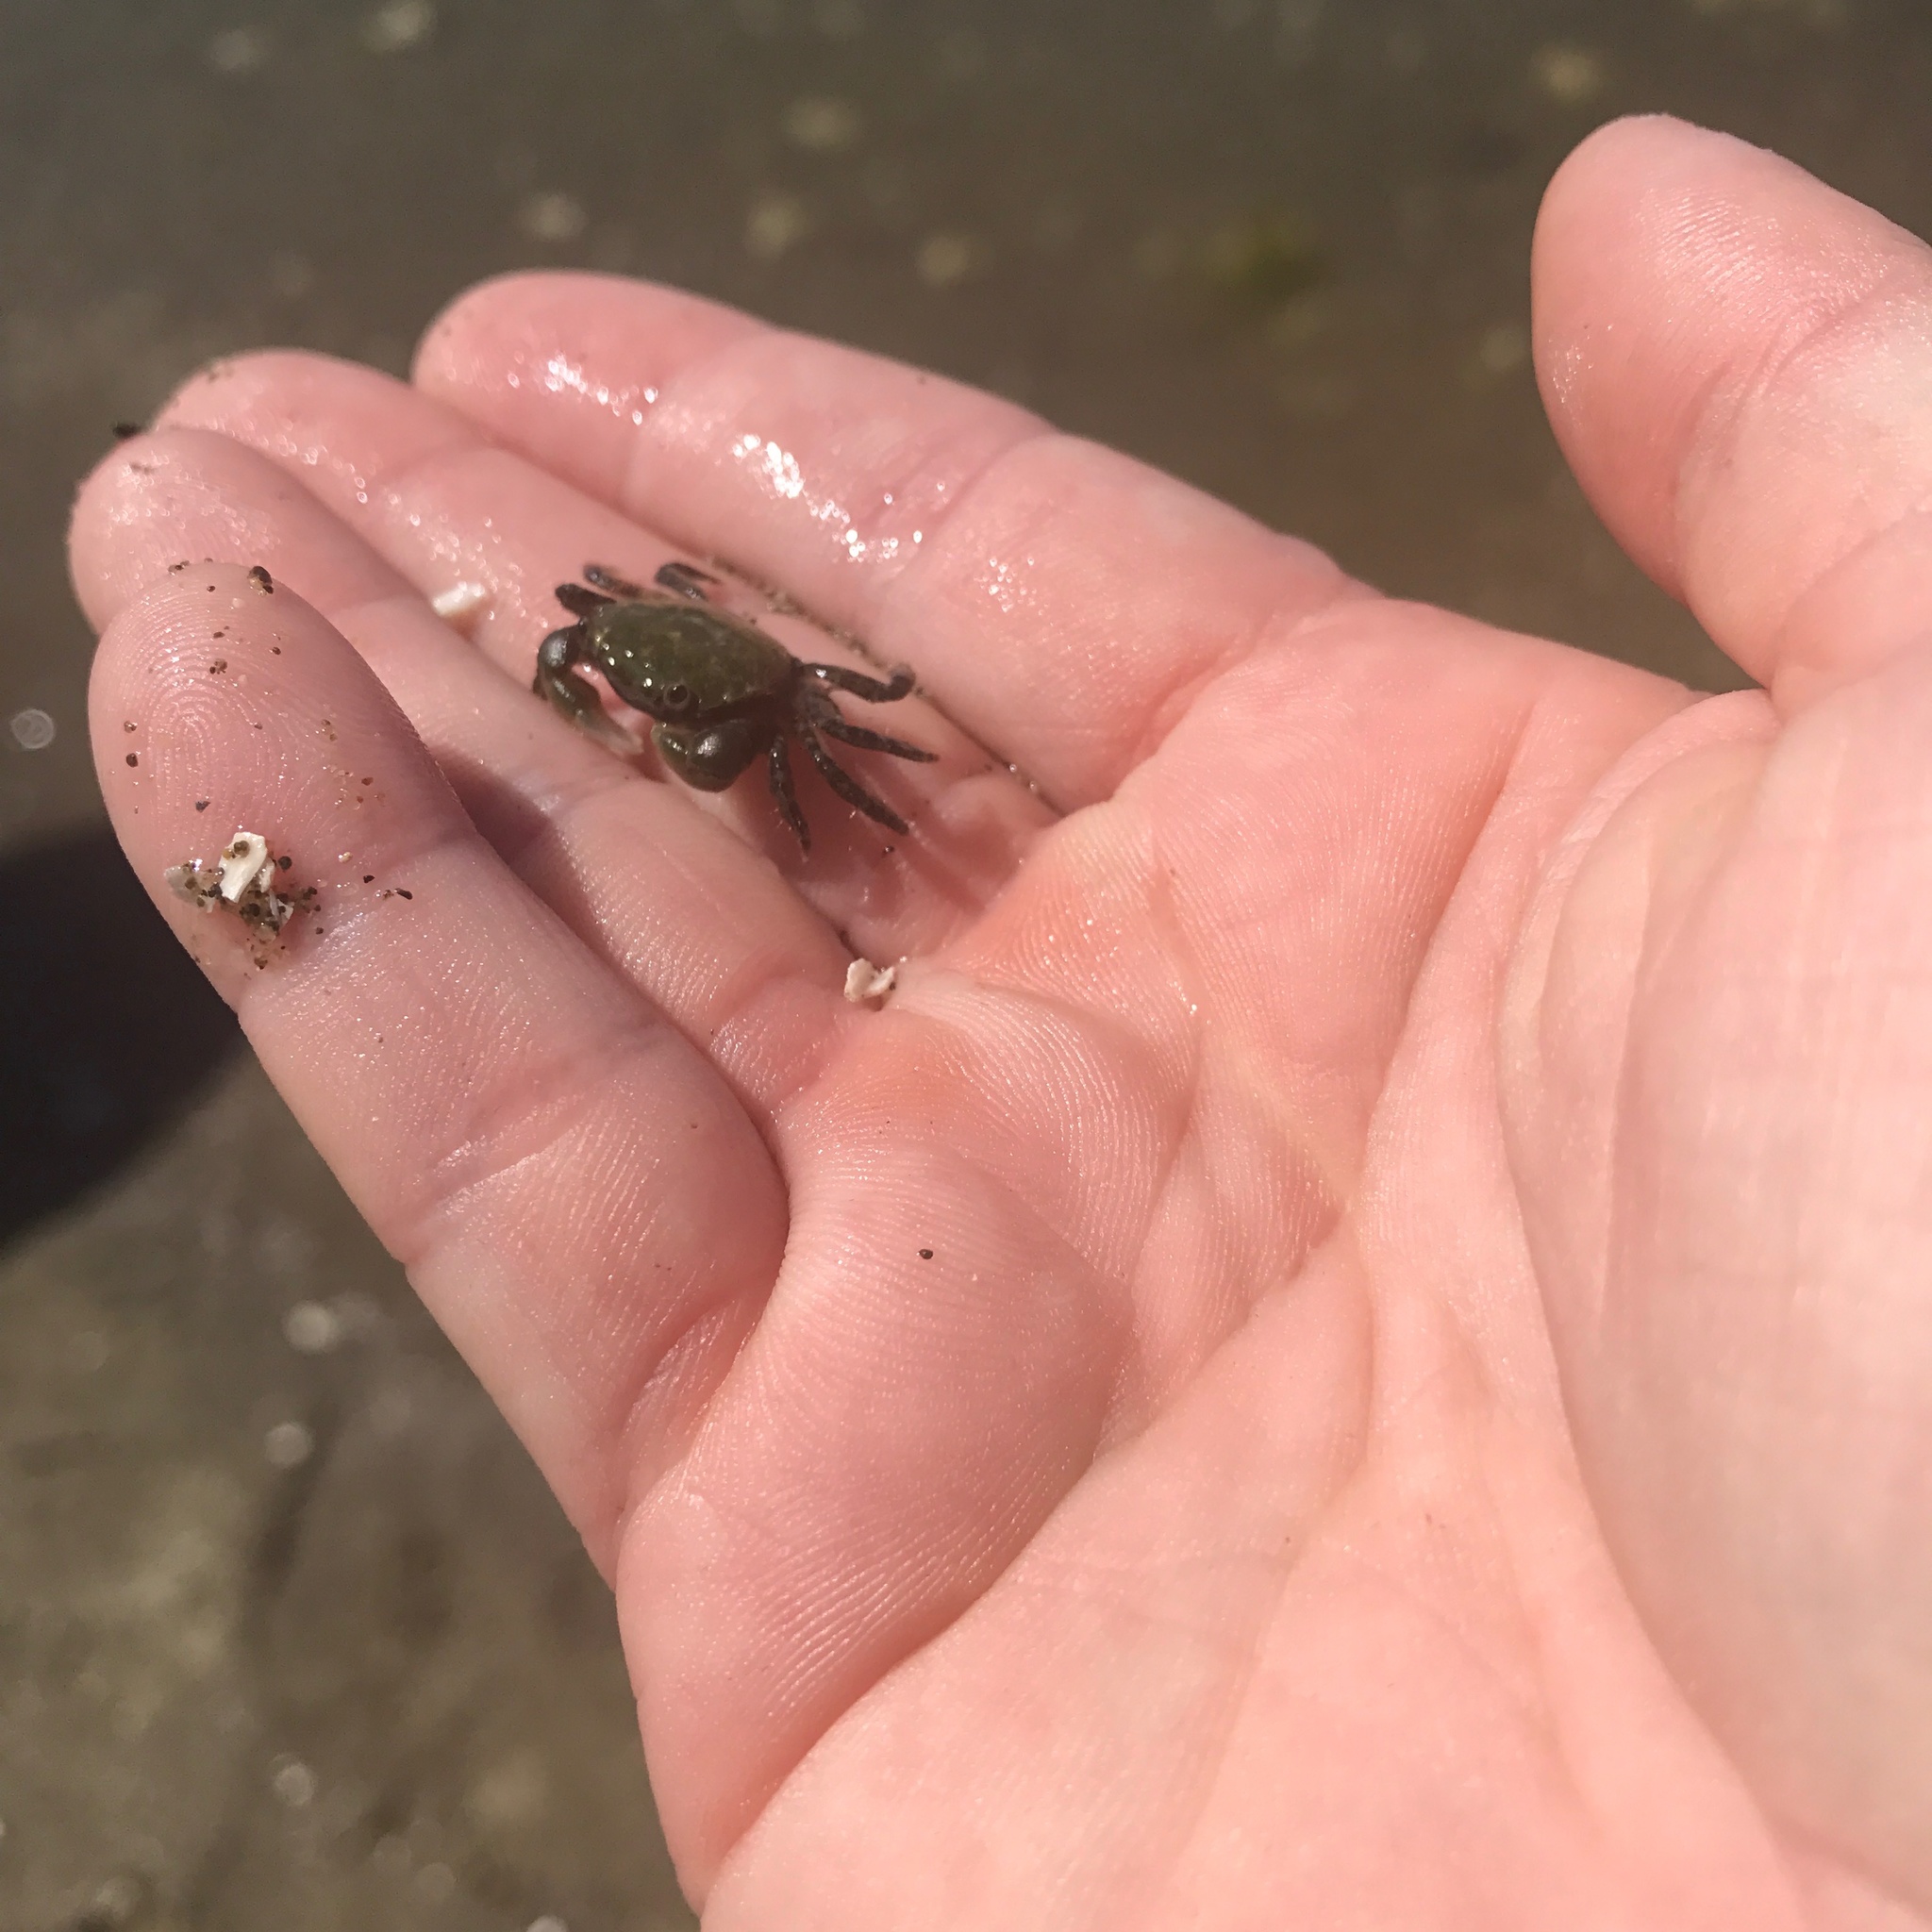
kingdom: Animalia
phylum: Arthropoda
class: Malacostraca
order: Decapoda
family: Varunidae
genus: Hemigrapsus
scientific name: Hemigrapsus oregonensis
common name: Yellow shore crab
